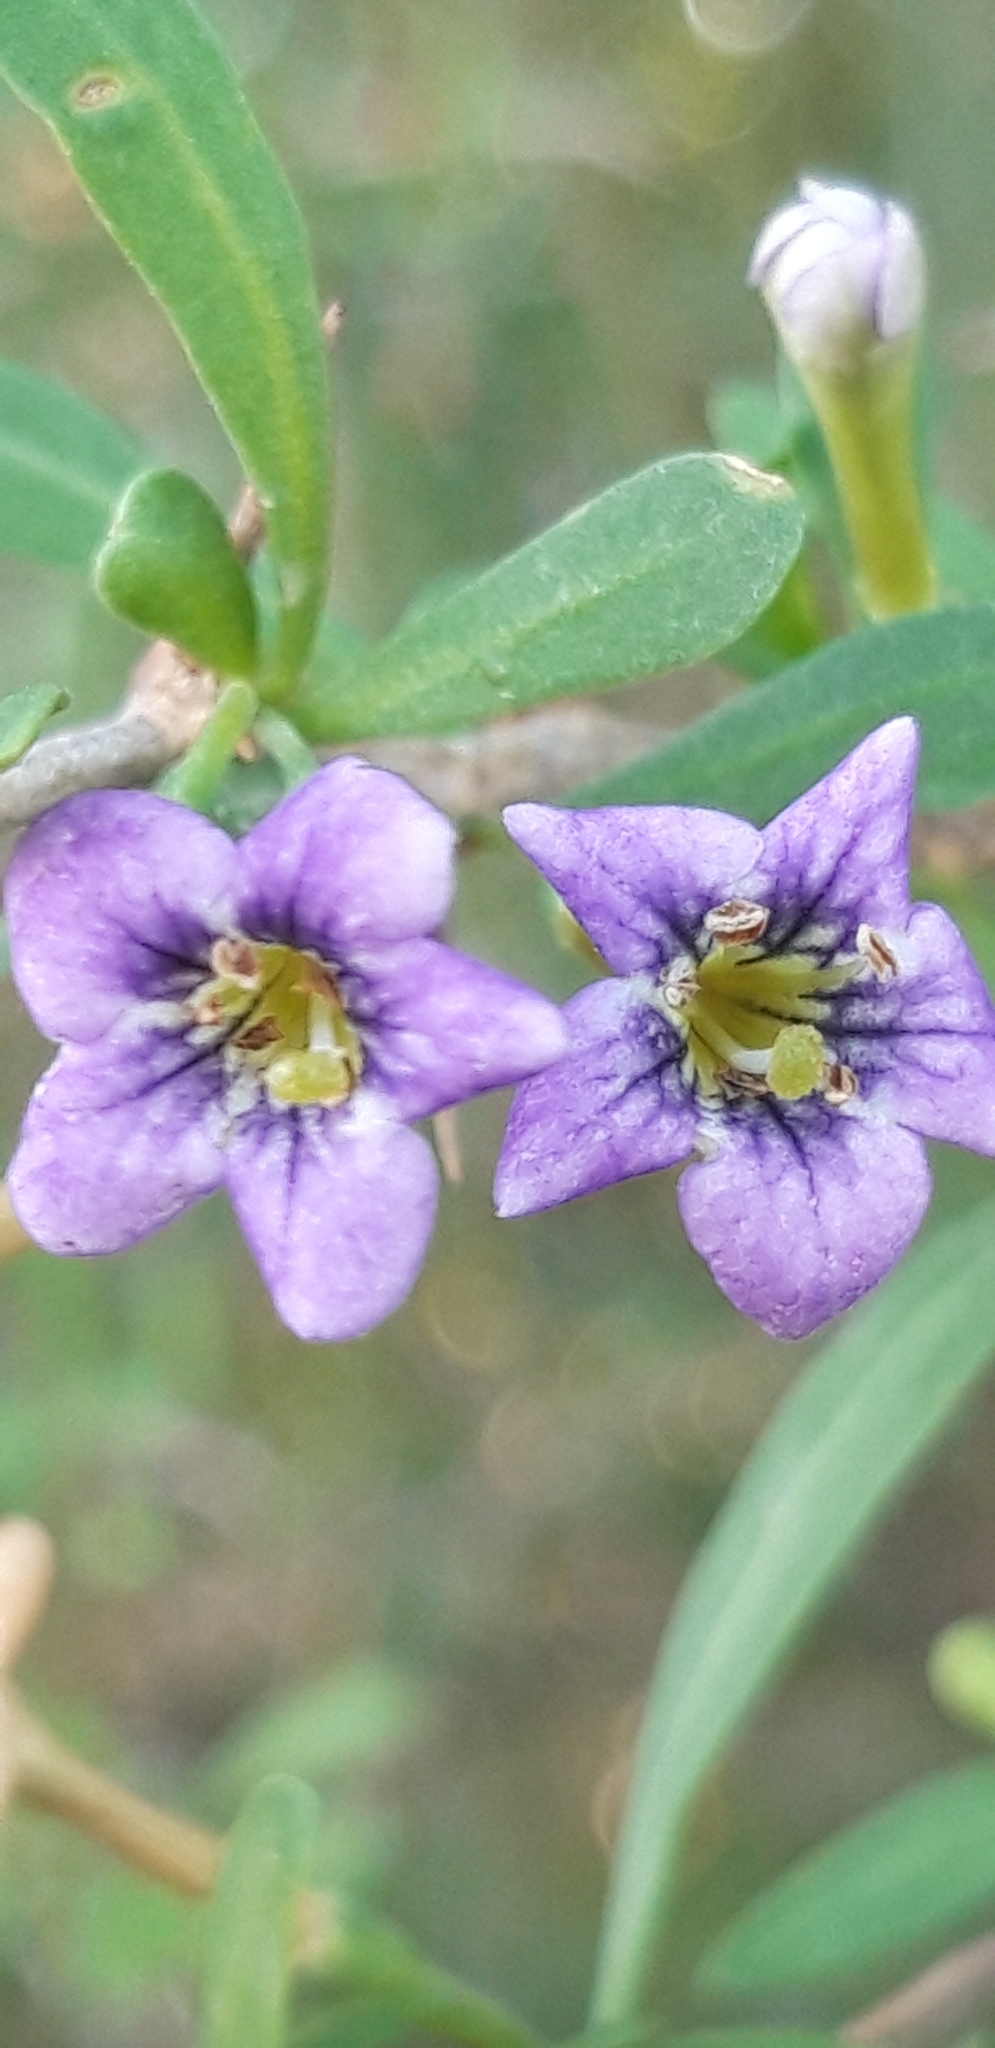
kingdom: Plantae
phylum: Tracheophyta
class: Magnoliopsida
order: Solanales
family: Solanaceae
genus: Lycium
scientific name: Lycium schweinfurthii
